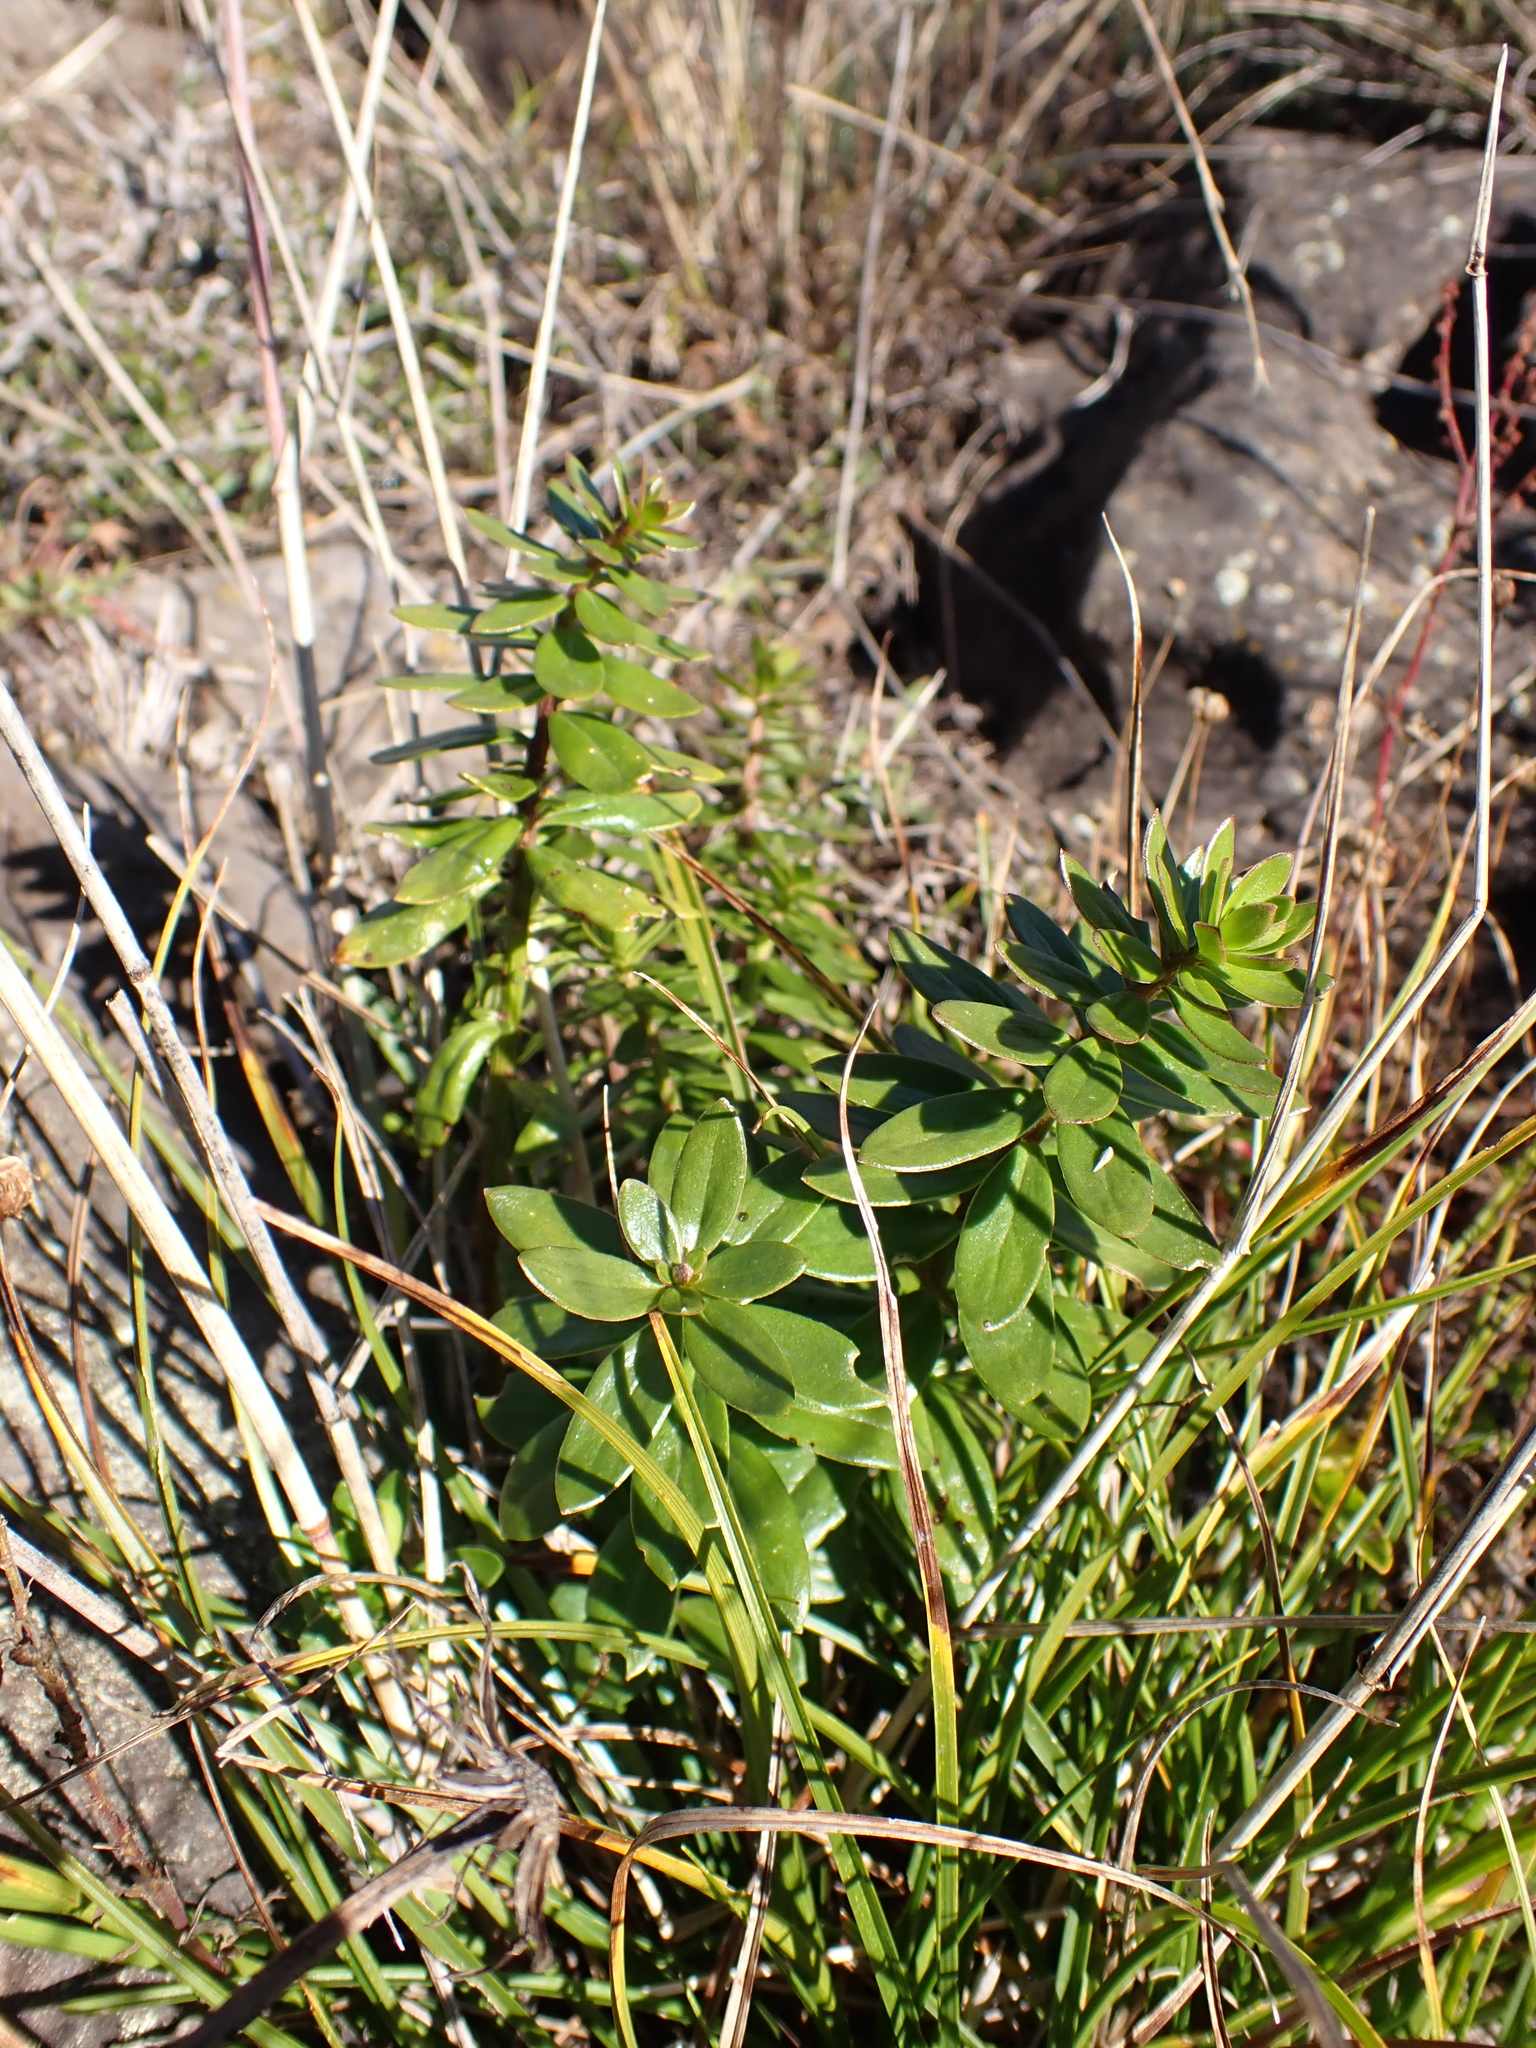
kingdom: Plantae
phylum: Tracheophyta
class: Magnoliopsida
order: Celastrales
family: Celastraceae
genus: Stackhousia
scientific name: Stackhousia monogyna
